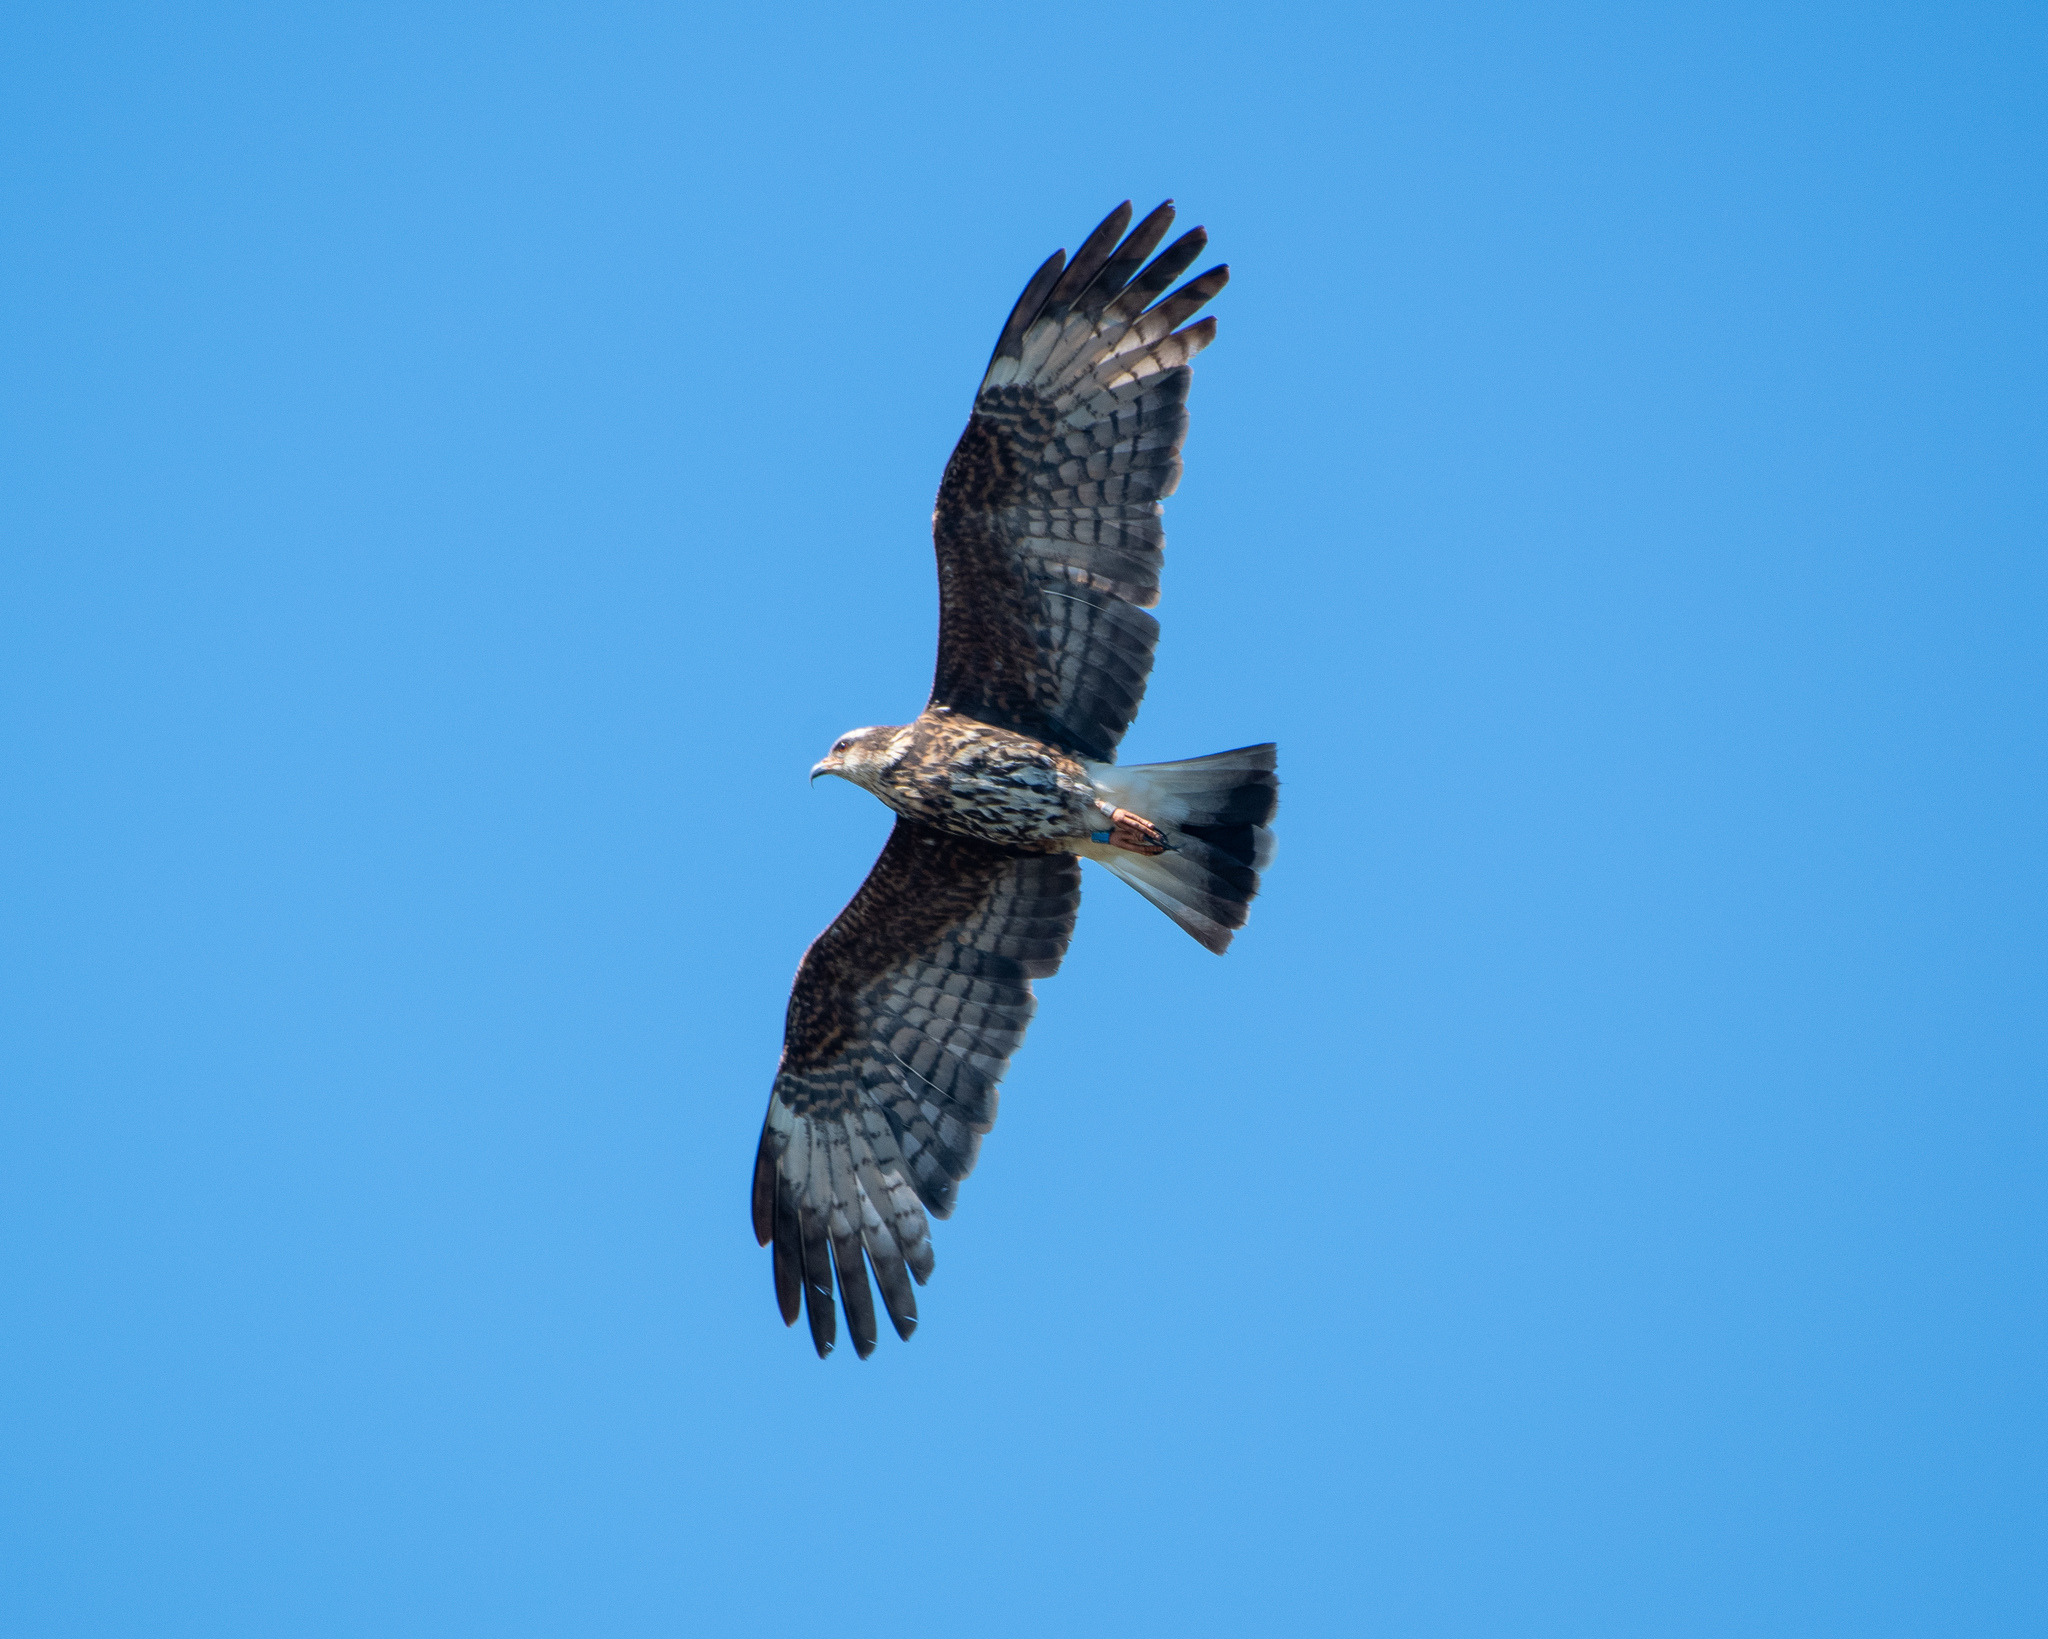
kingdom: Animalia
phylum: Chordata
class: Aves
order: Accipitriformes
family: Accipitridae
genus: Rostrhamus
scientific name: Rostrhamus sociabilis
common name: Snail kite
